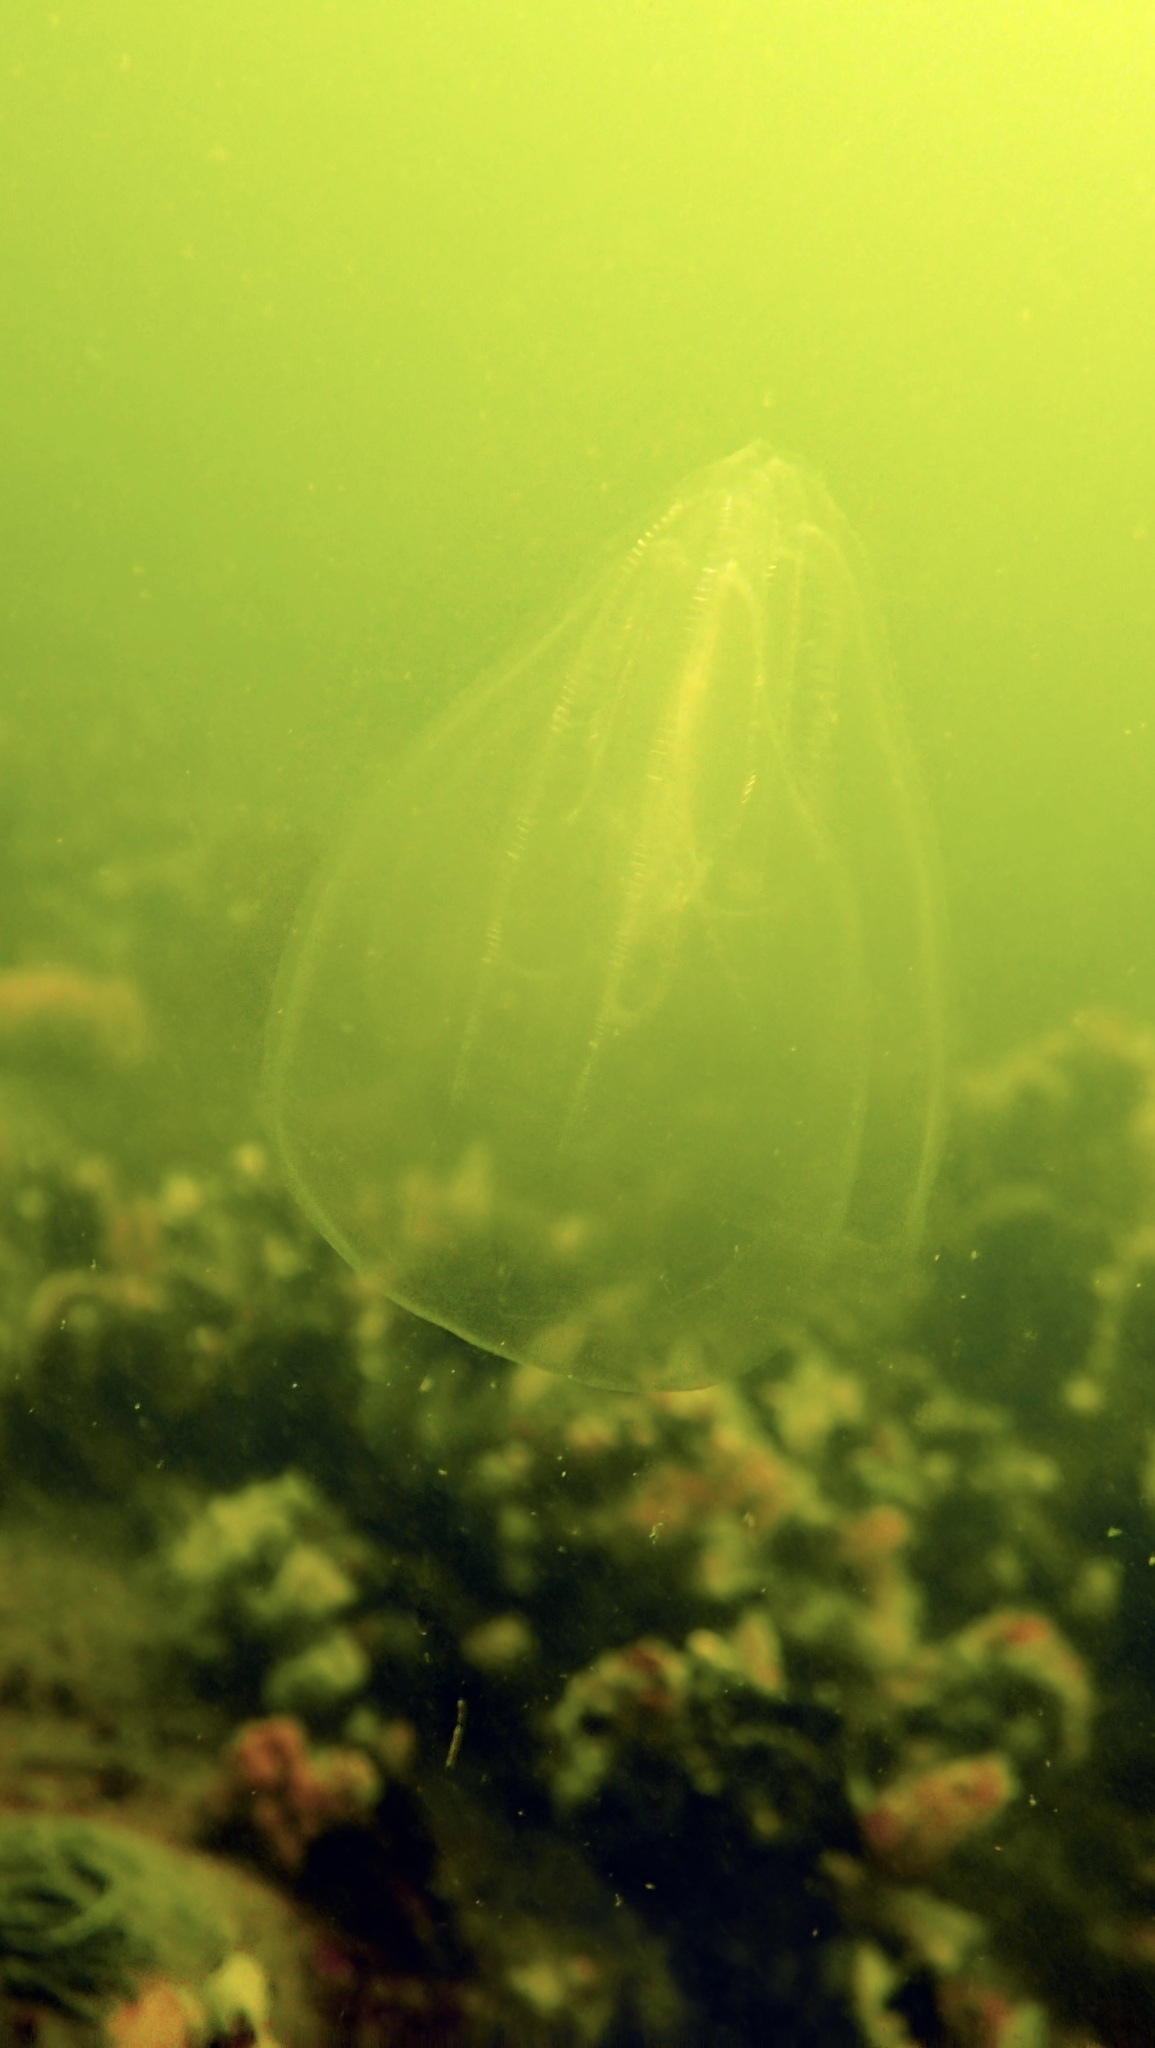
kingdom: Animalia
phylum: Ctenophora
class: Tentaculata
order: Lobata
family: Bolinopsidae
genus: Mnemiopsis
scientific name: Mnemiopsis leidyi
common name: American comb jelly
